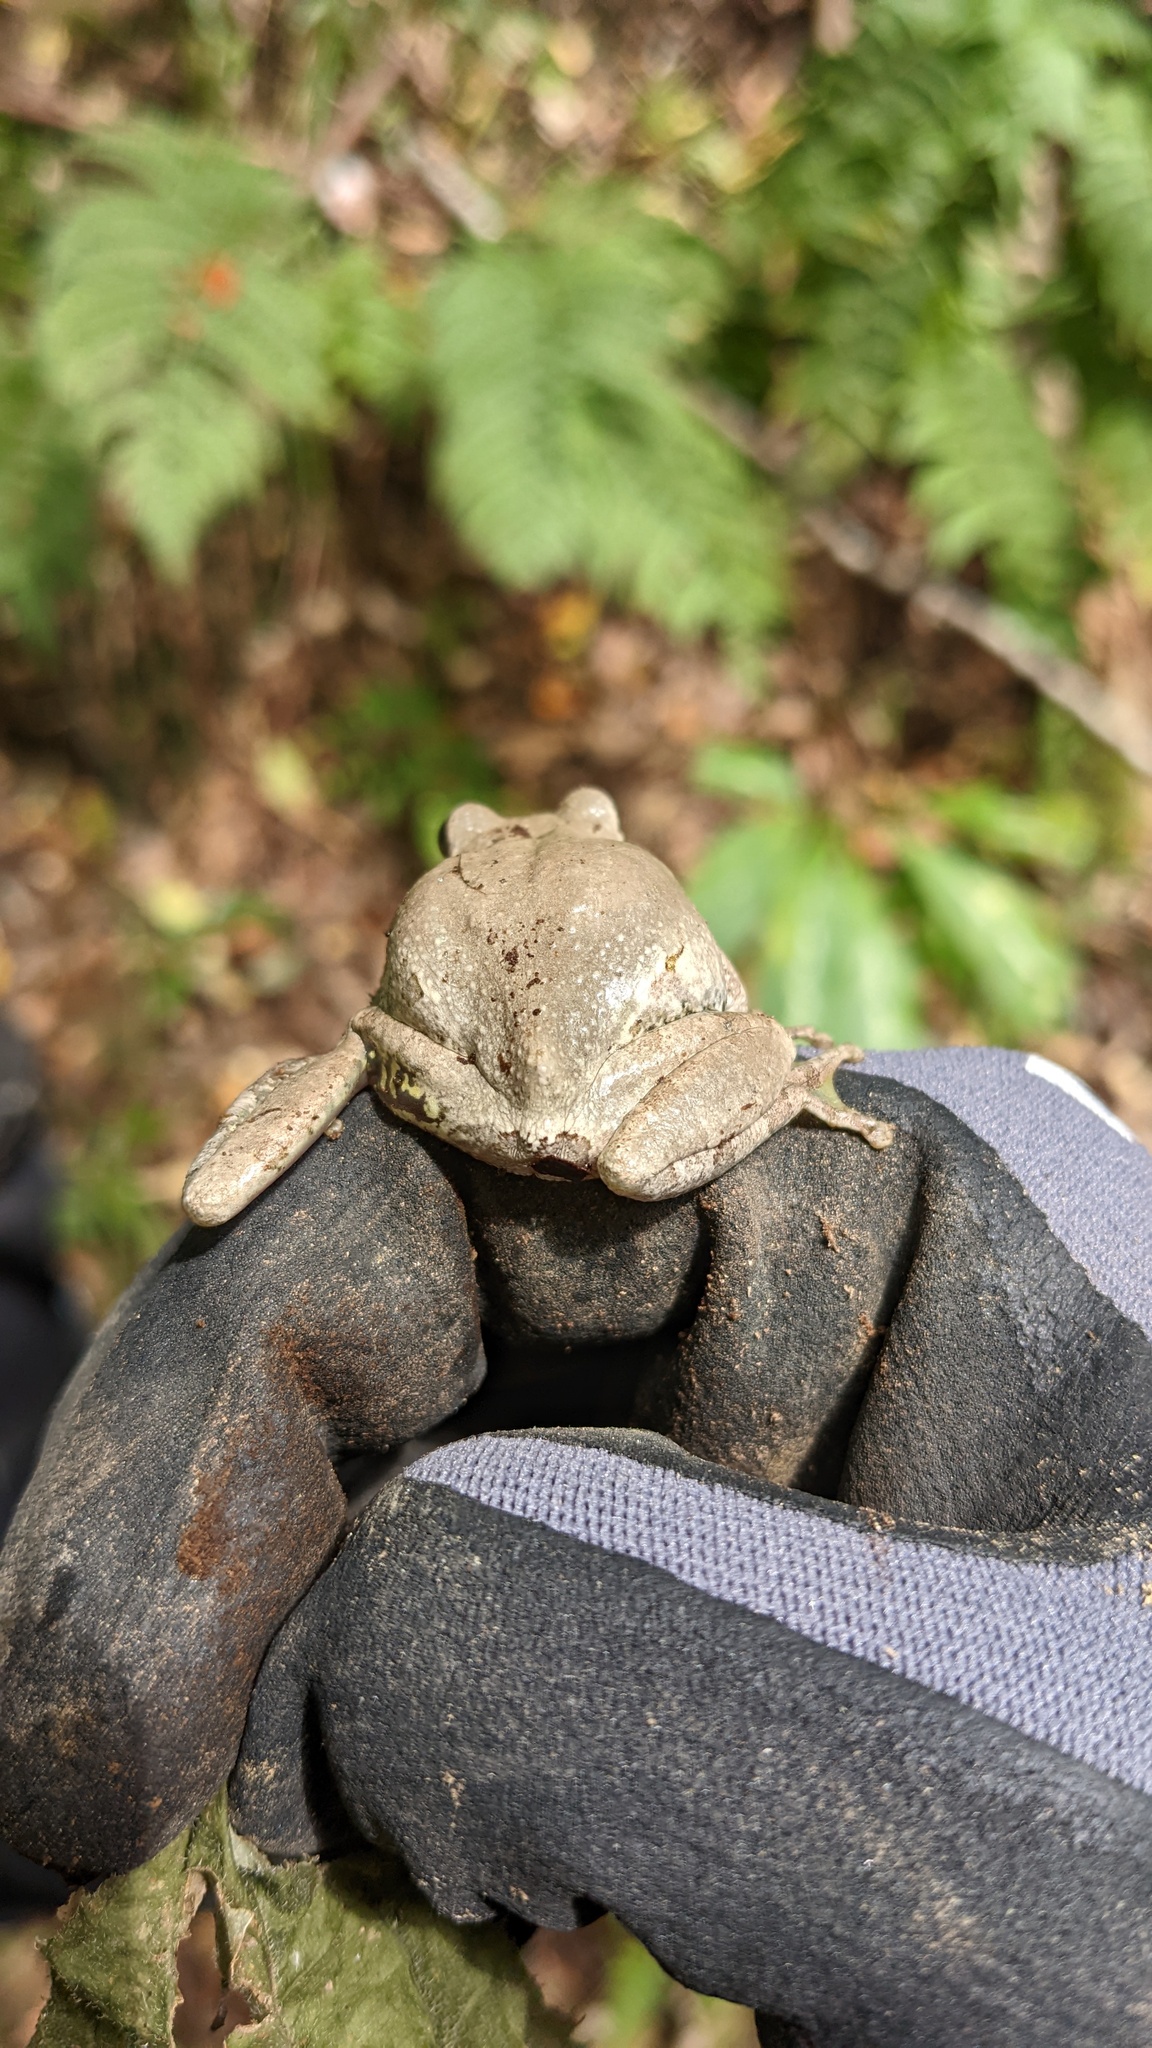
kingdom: Animalia
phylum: Chordata
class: Amphibia
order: Anura
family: Hylidae
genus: Dryophytes
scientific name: Dryophytes japonicus
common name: Japanese treefrog
